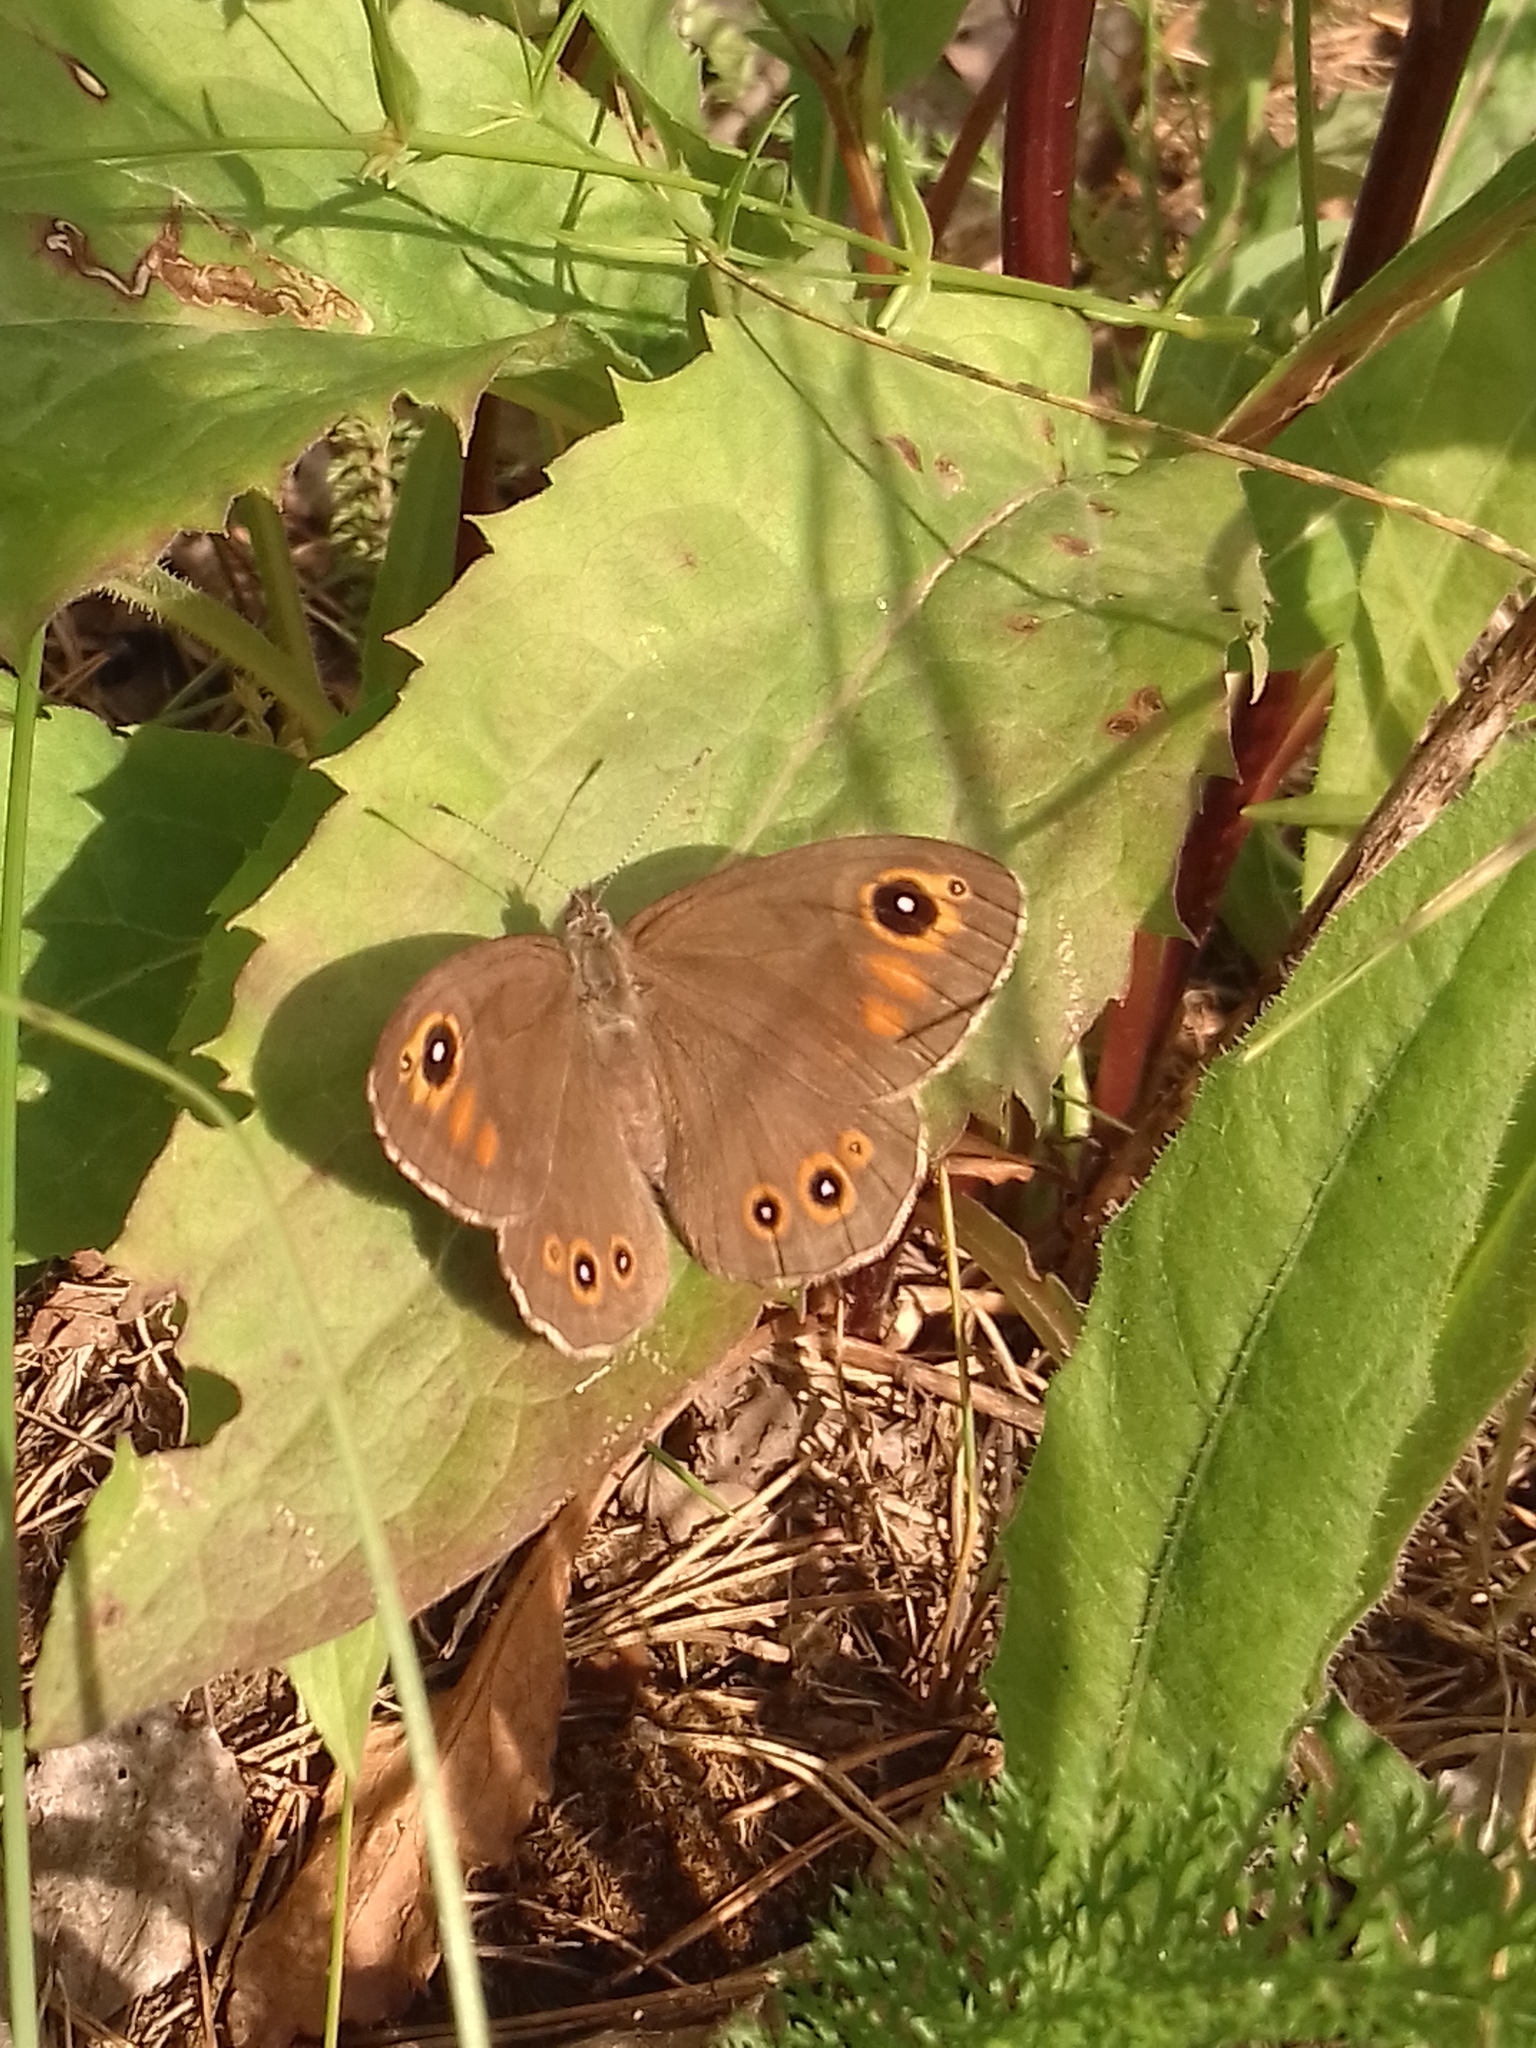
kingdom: Animalia
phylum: Arthropoda
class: Insecta
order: Lepidoptera
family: Nymphalidae
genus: Pararge
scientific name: Pararge Lasiommata maera
